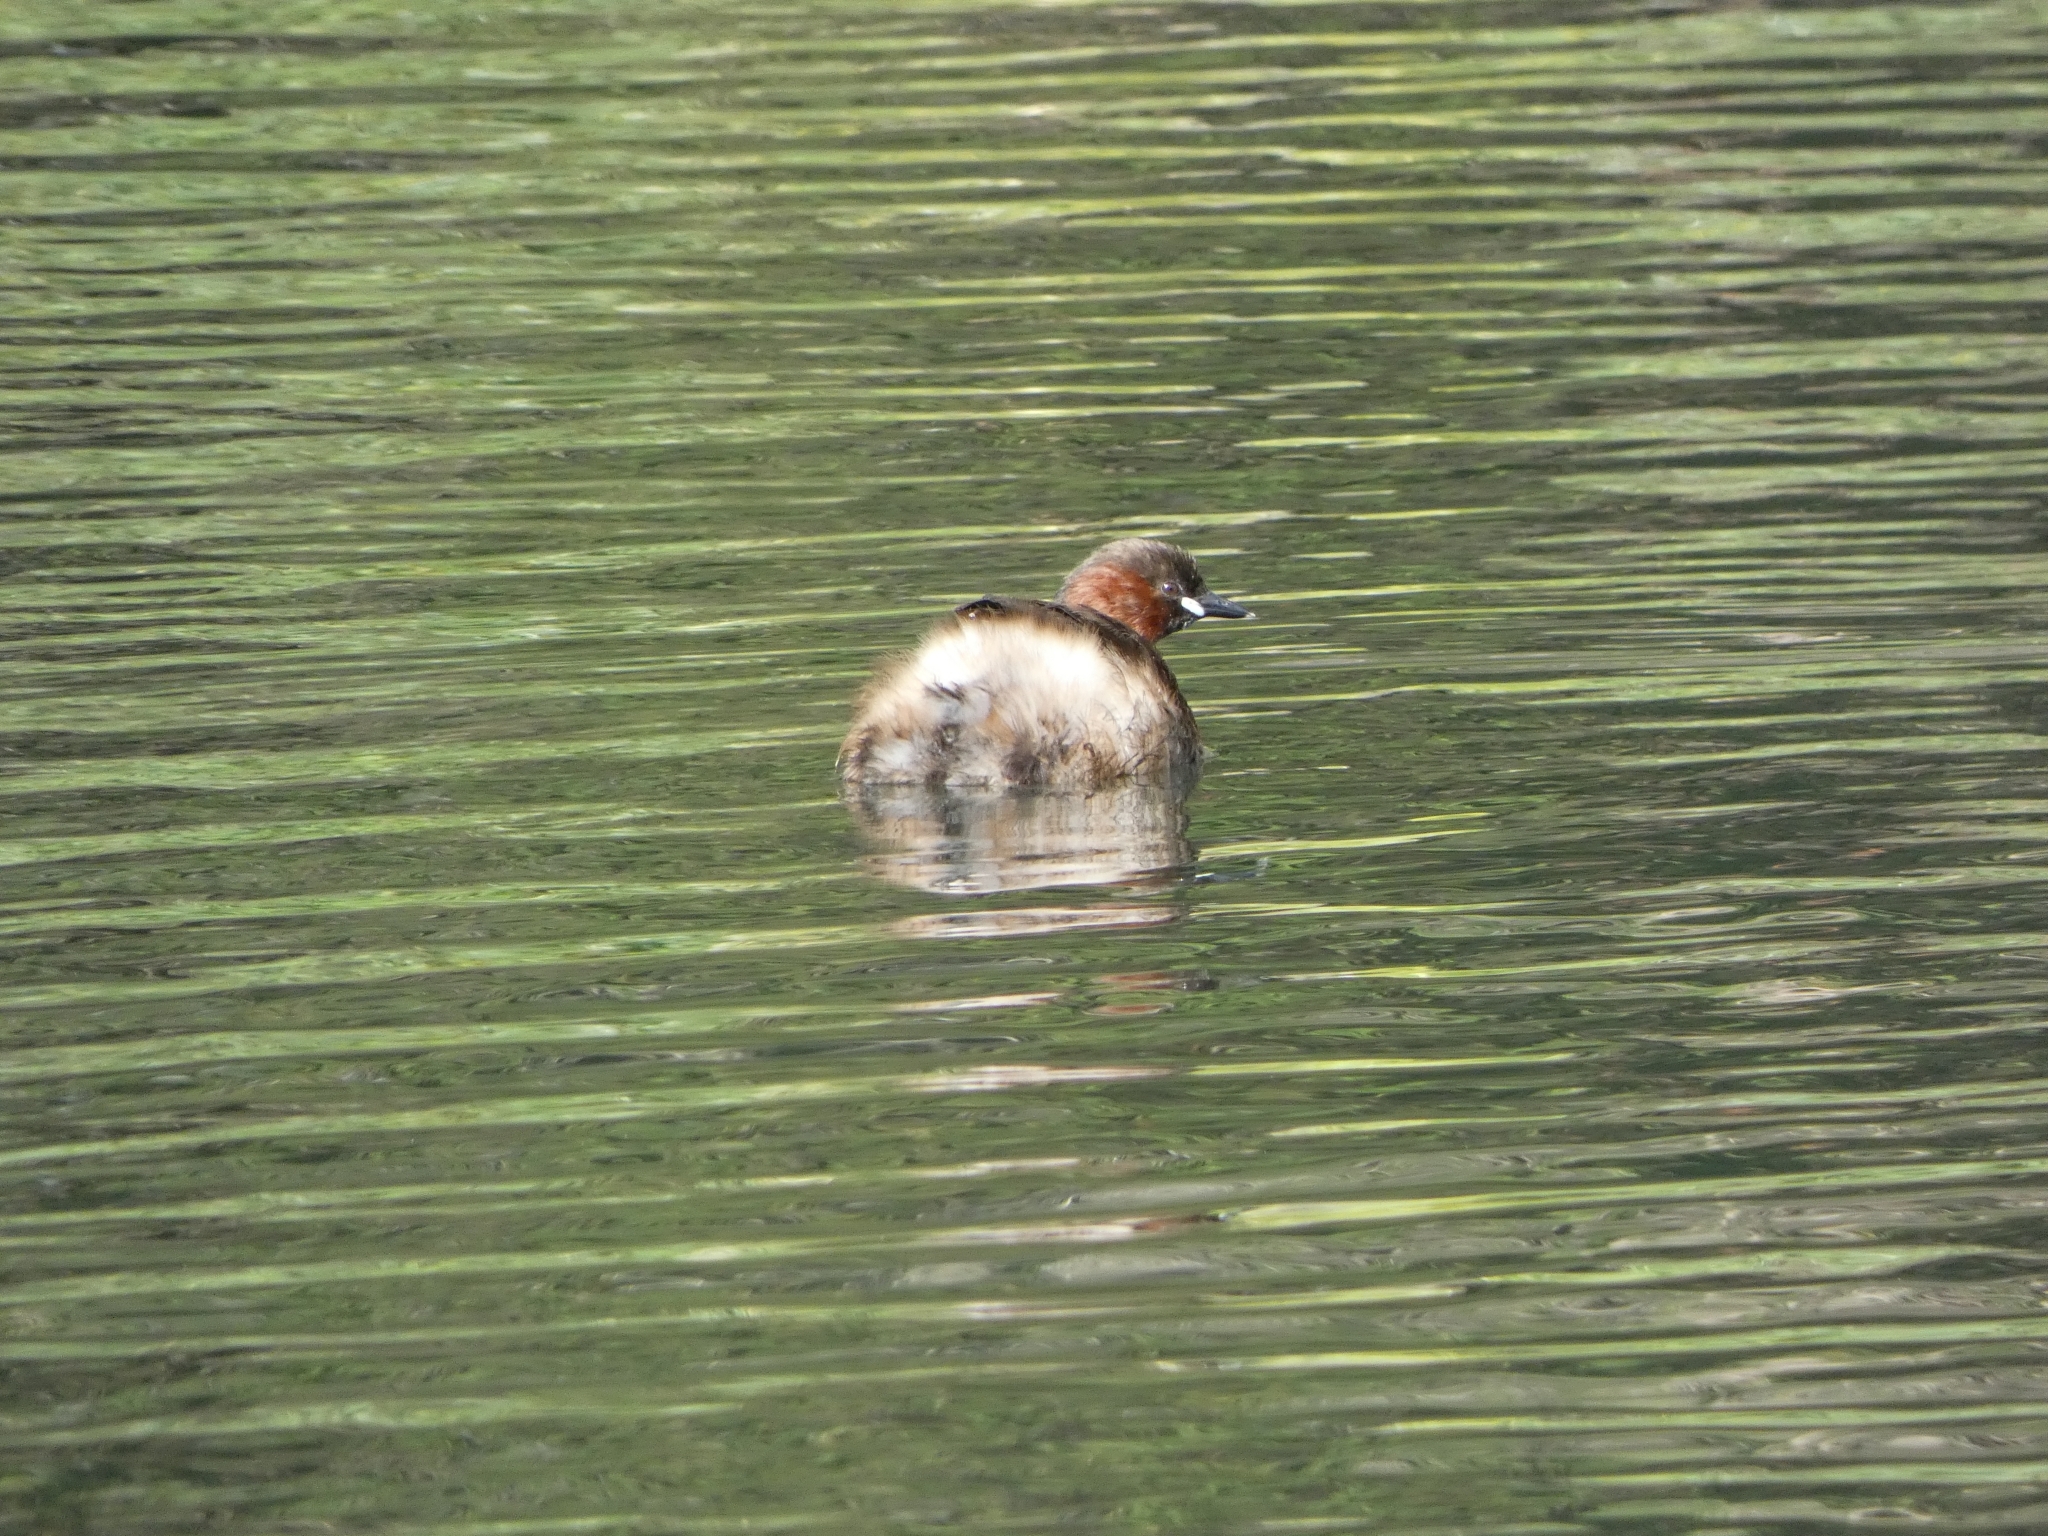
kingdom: Animalia
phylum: Chordata
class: Aves
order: Podicipediformes
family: Podicipedidae
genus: Tachybaptus
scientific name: Tachybaptus ruficollis
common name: Little grebe
